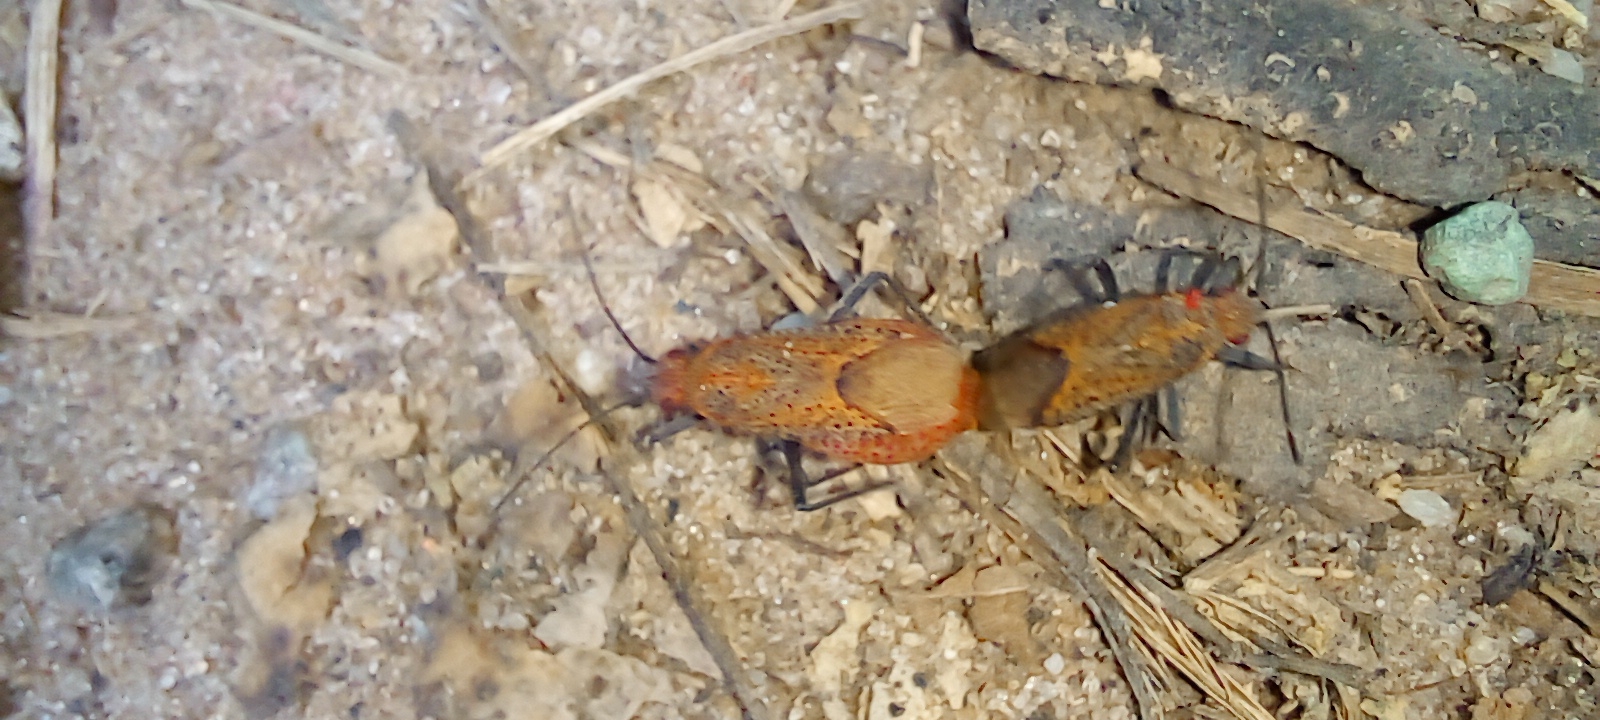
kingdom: Animalia
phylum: Arthropoda
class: Insecta
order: Hemiptera
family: Rhopalidae
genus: Jadera
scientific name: Jadera choprai
